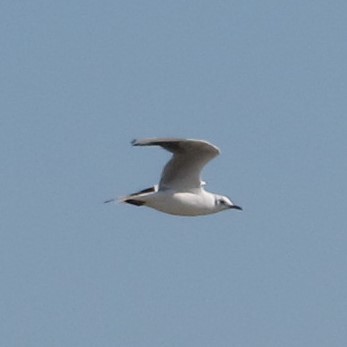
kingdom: Animalia
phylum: Chordata
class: Aves
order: Charadriiformes
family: Laridae
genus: Chroicocephalus
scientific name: Chroicocephalus ridibundus
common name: Black-headed gull
